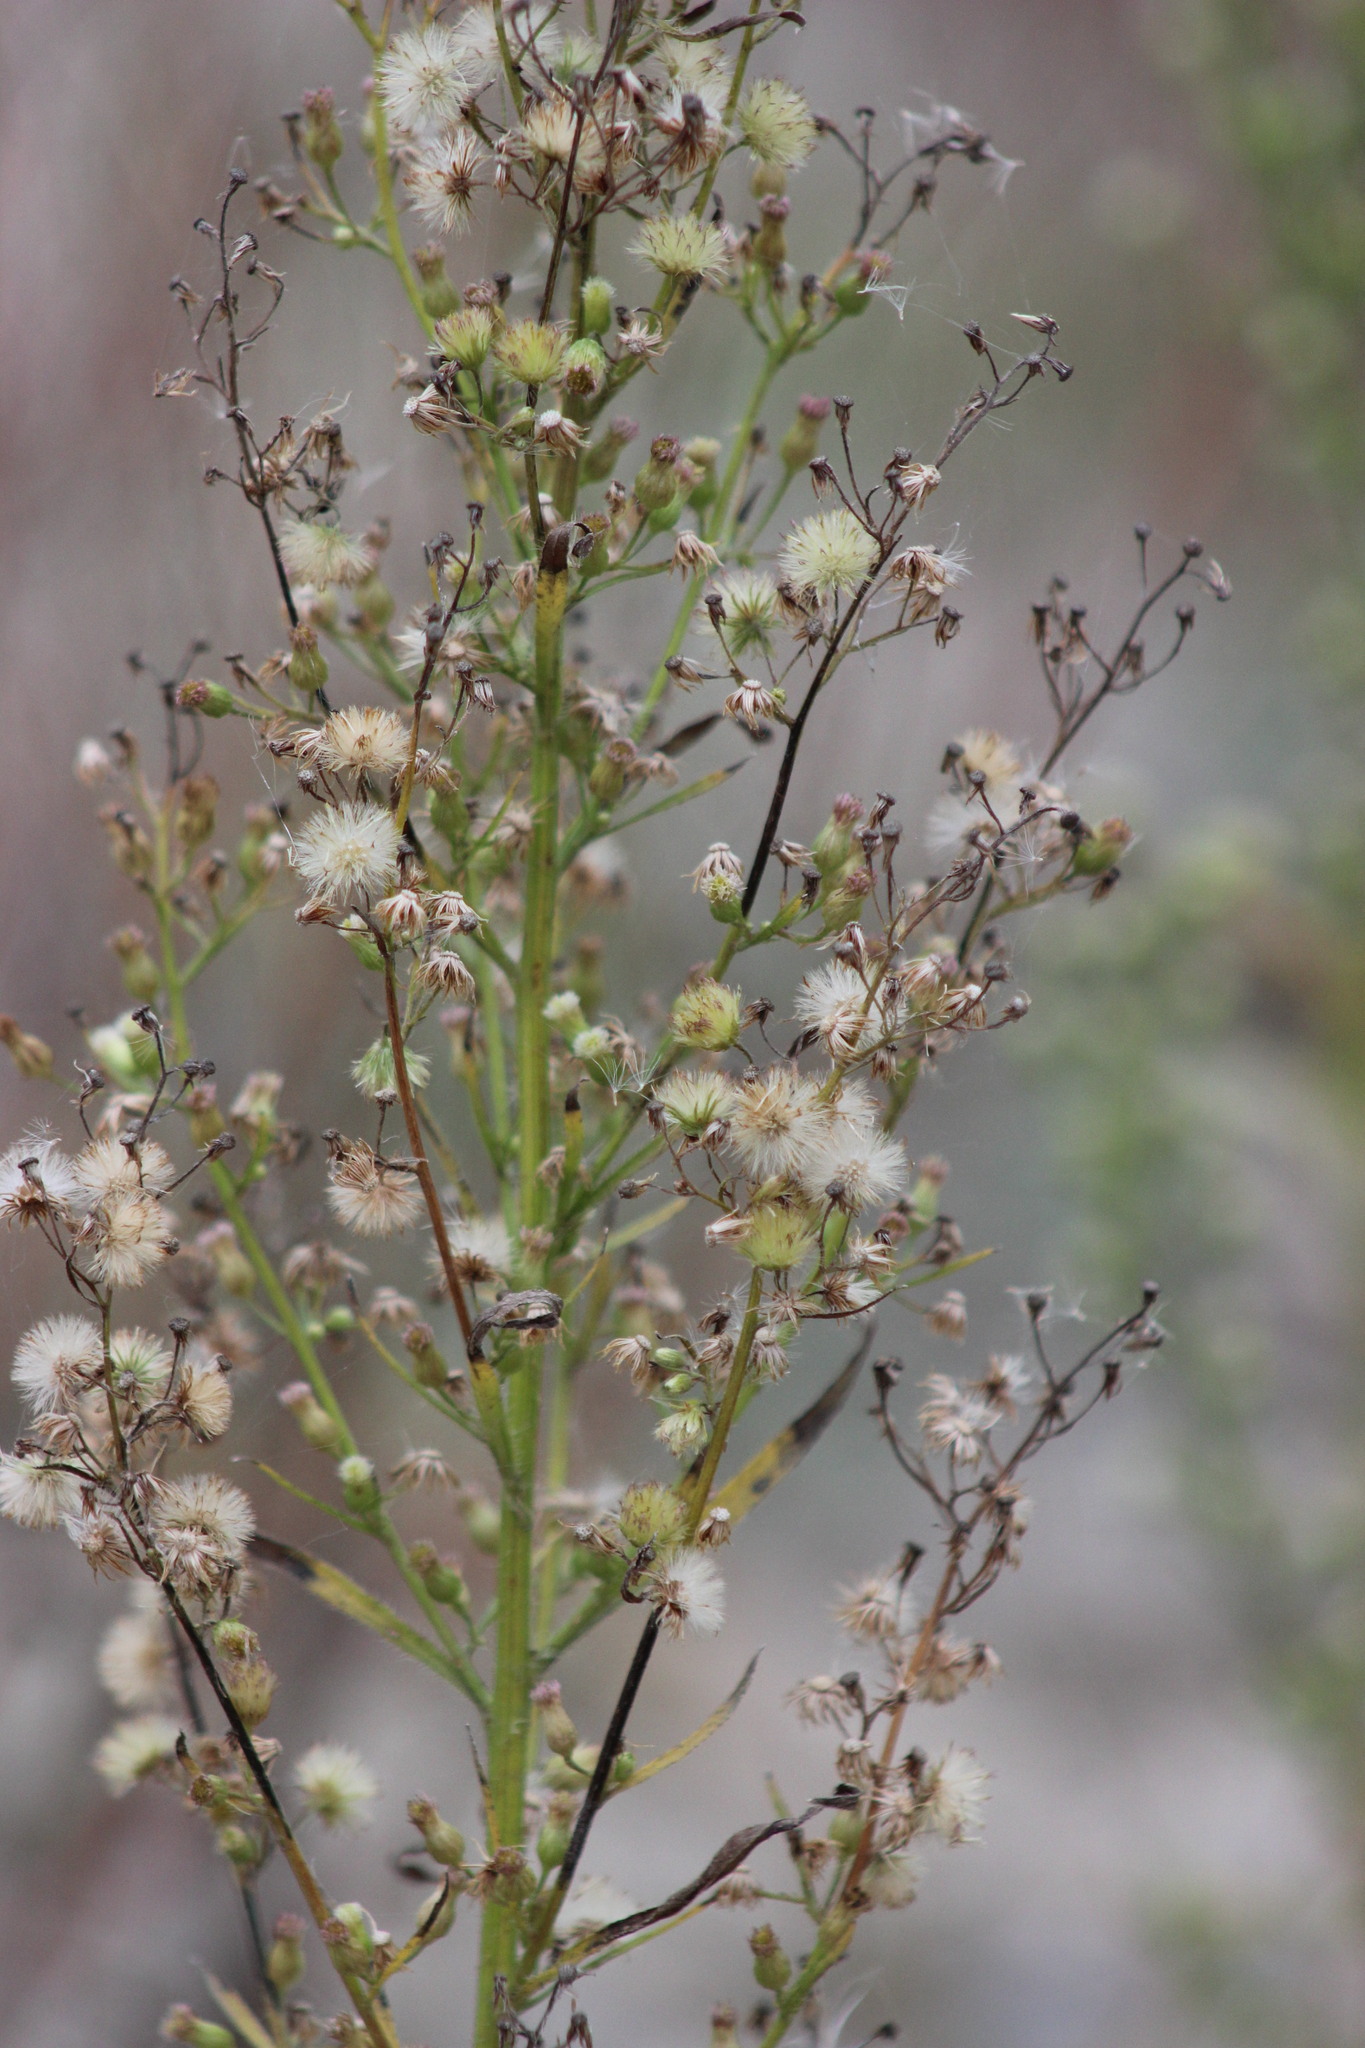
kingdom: Plantae
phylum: Tracheophyta
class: Magnoliopsida
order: Asterales
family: Asteraceae
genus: Erigeron
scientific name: Erigeron canadensis
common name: Canadian fleabane
